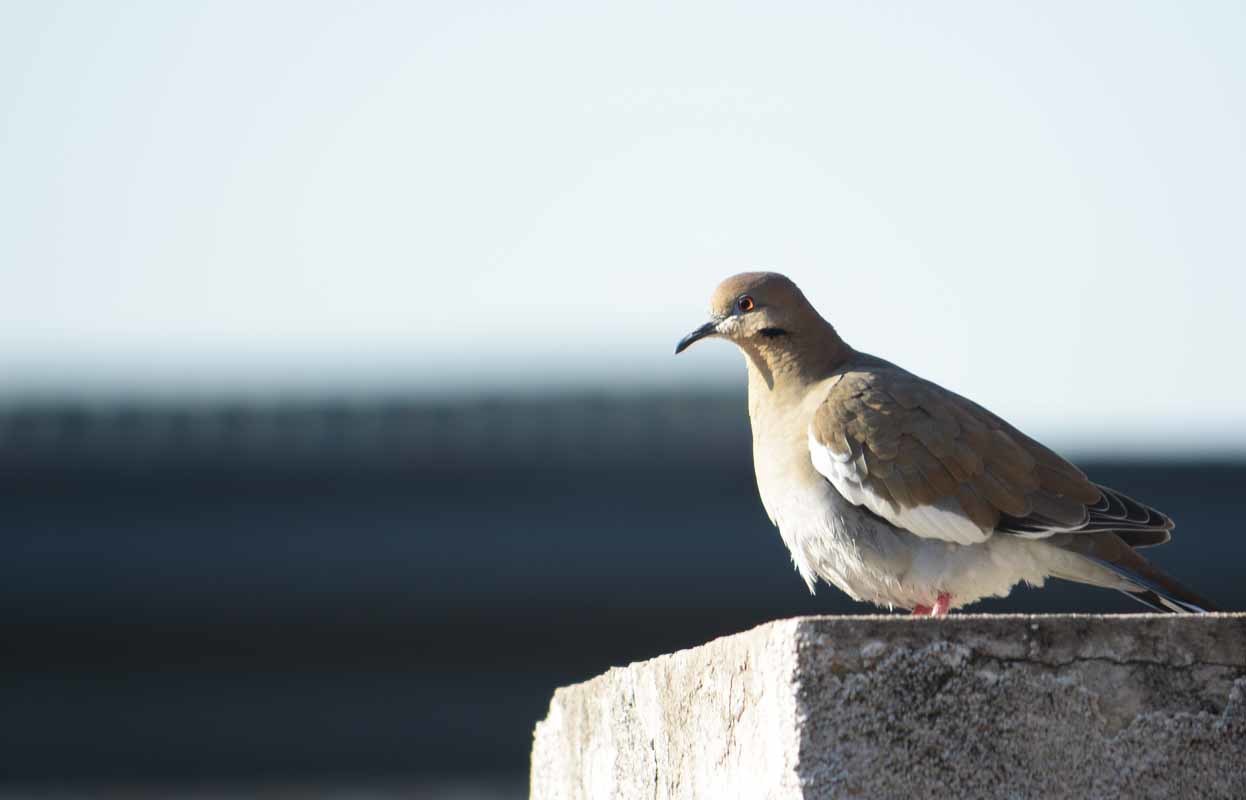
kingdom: Animalia
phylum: Chordata
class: Aves
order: Columbiformes
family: Columbidae
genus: Zenaida
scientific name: Zenaida asiatica
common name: White-winged dove
